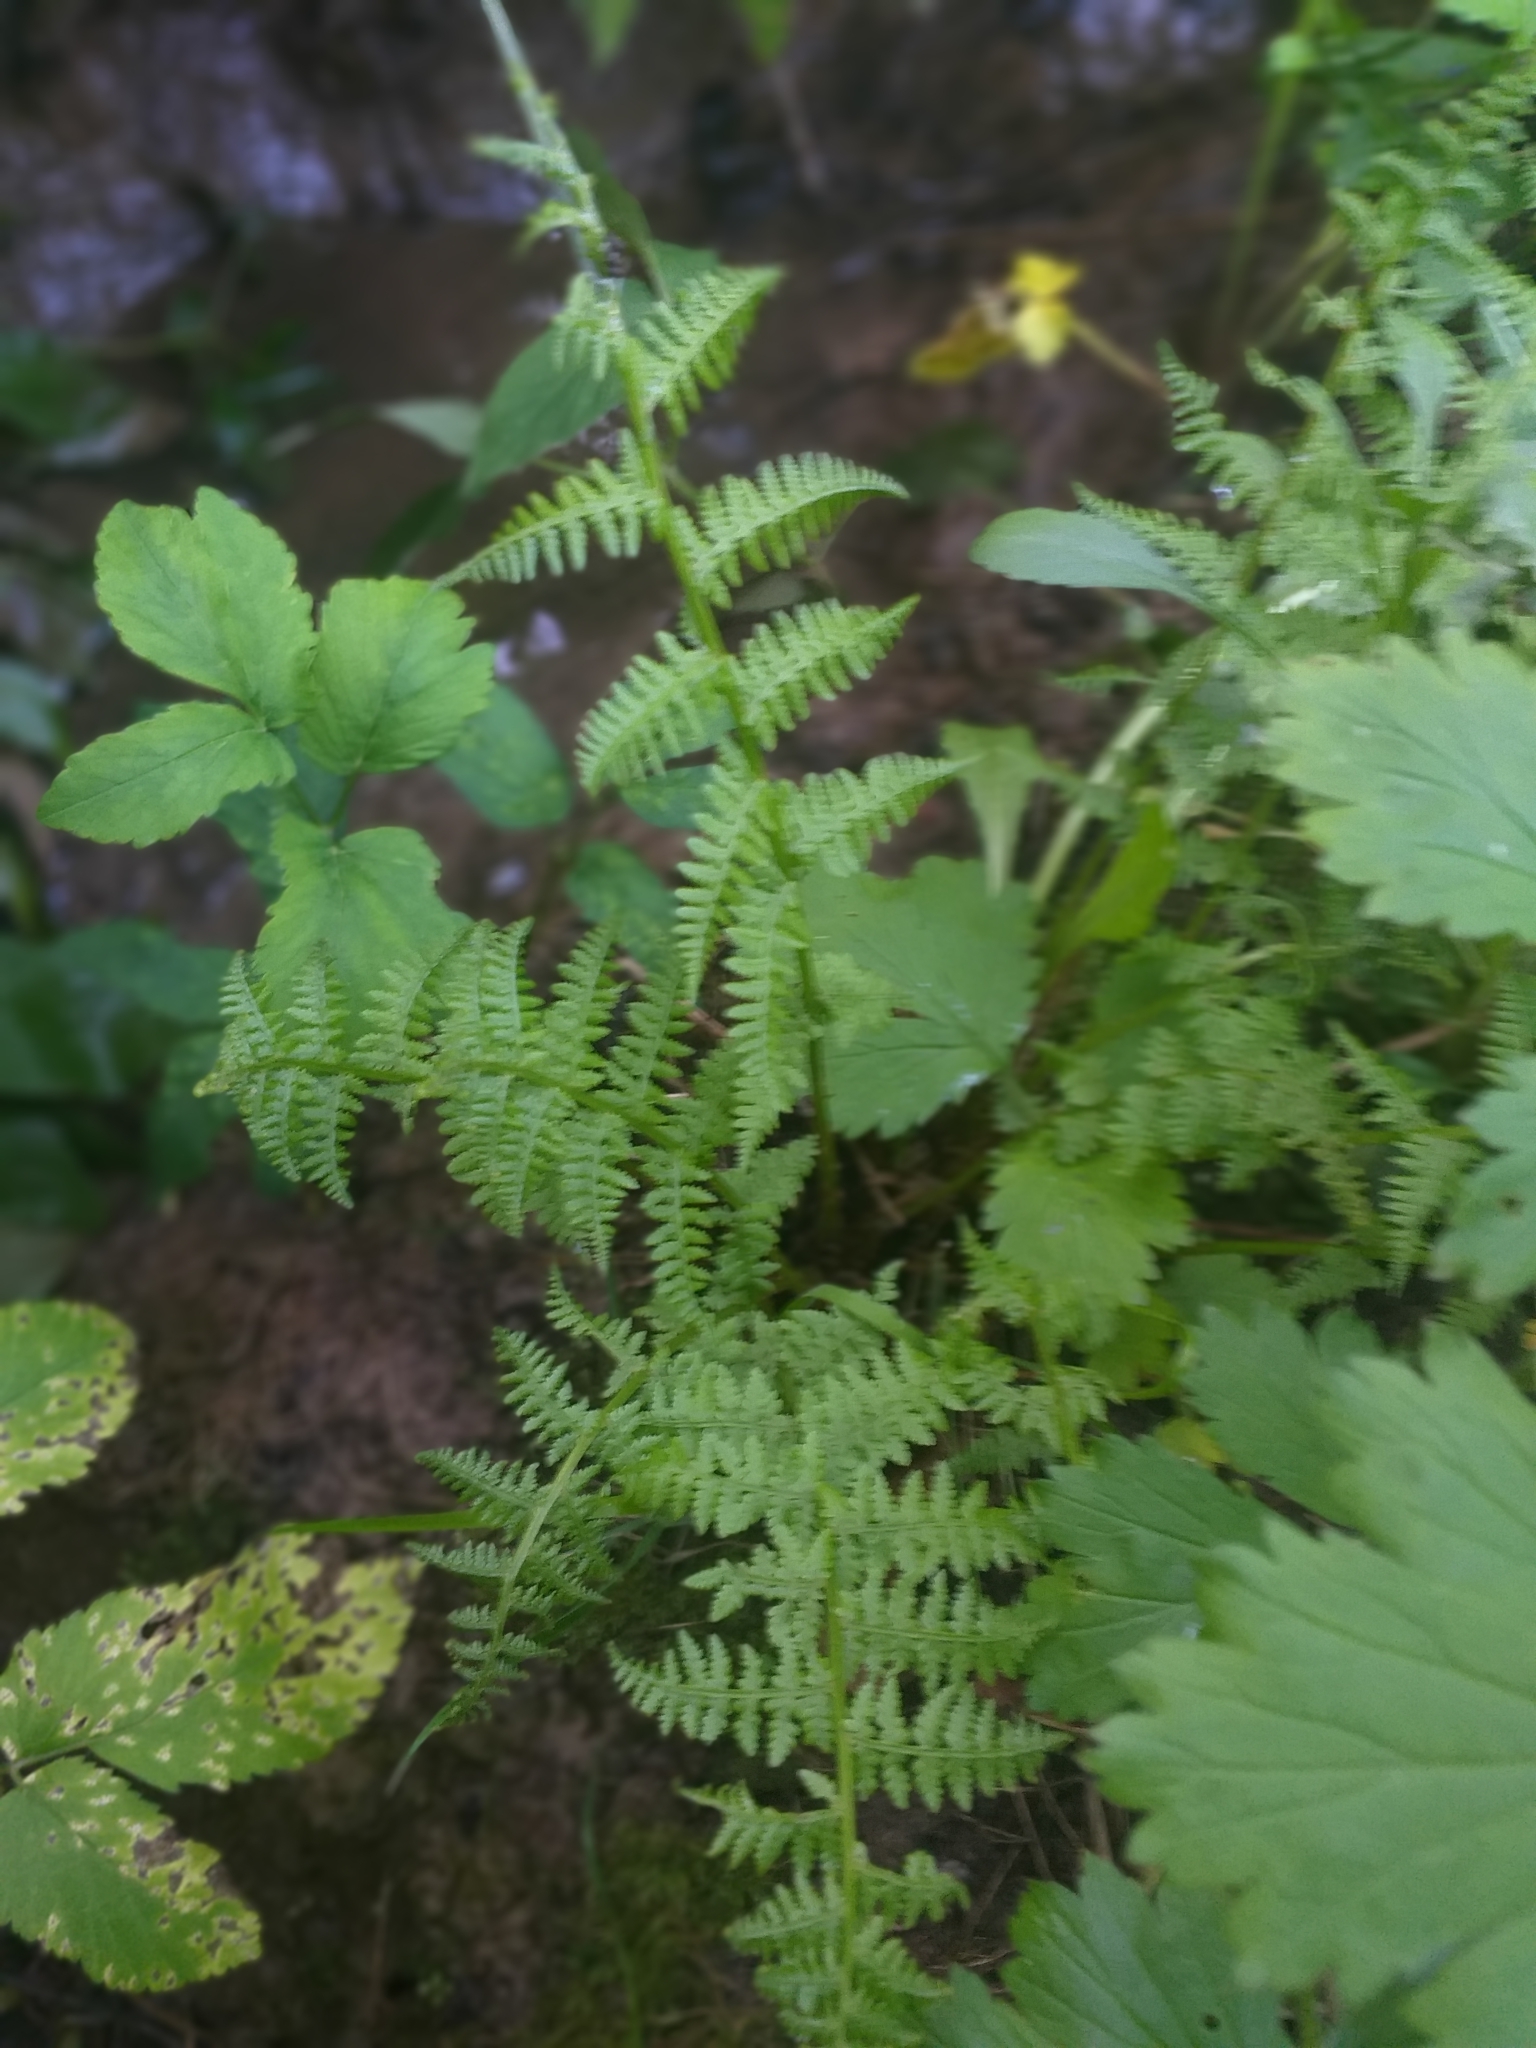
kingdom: Plantae
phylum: Tracheophyta
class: Polypodiopsida
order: Polypodiales
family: Athyriaceae
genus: Athyrium
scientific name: Athyrium filix-femina
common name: Lady fern
